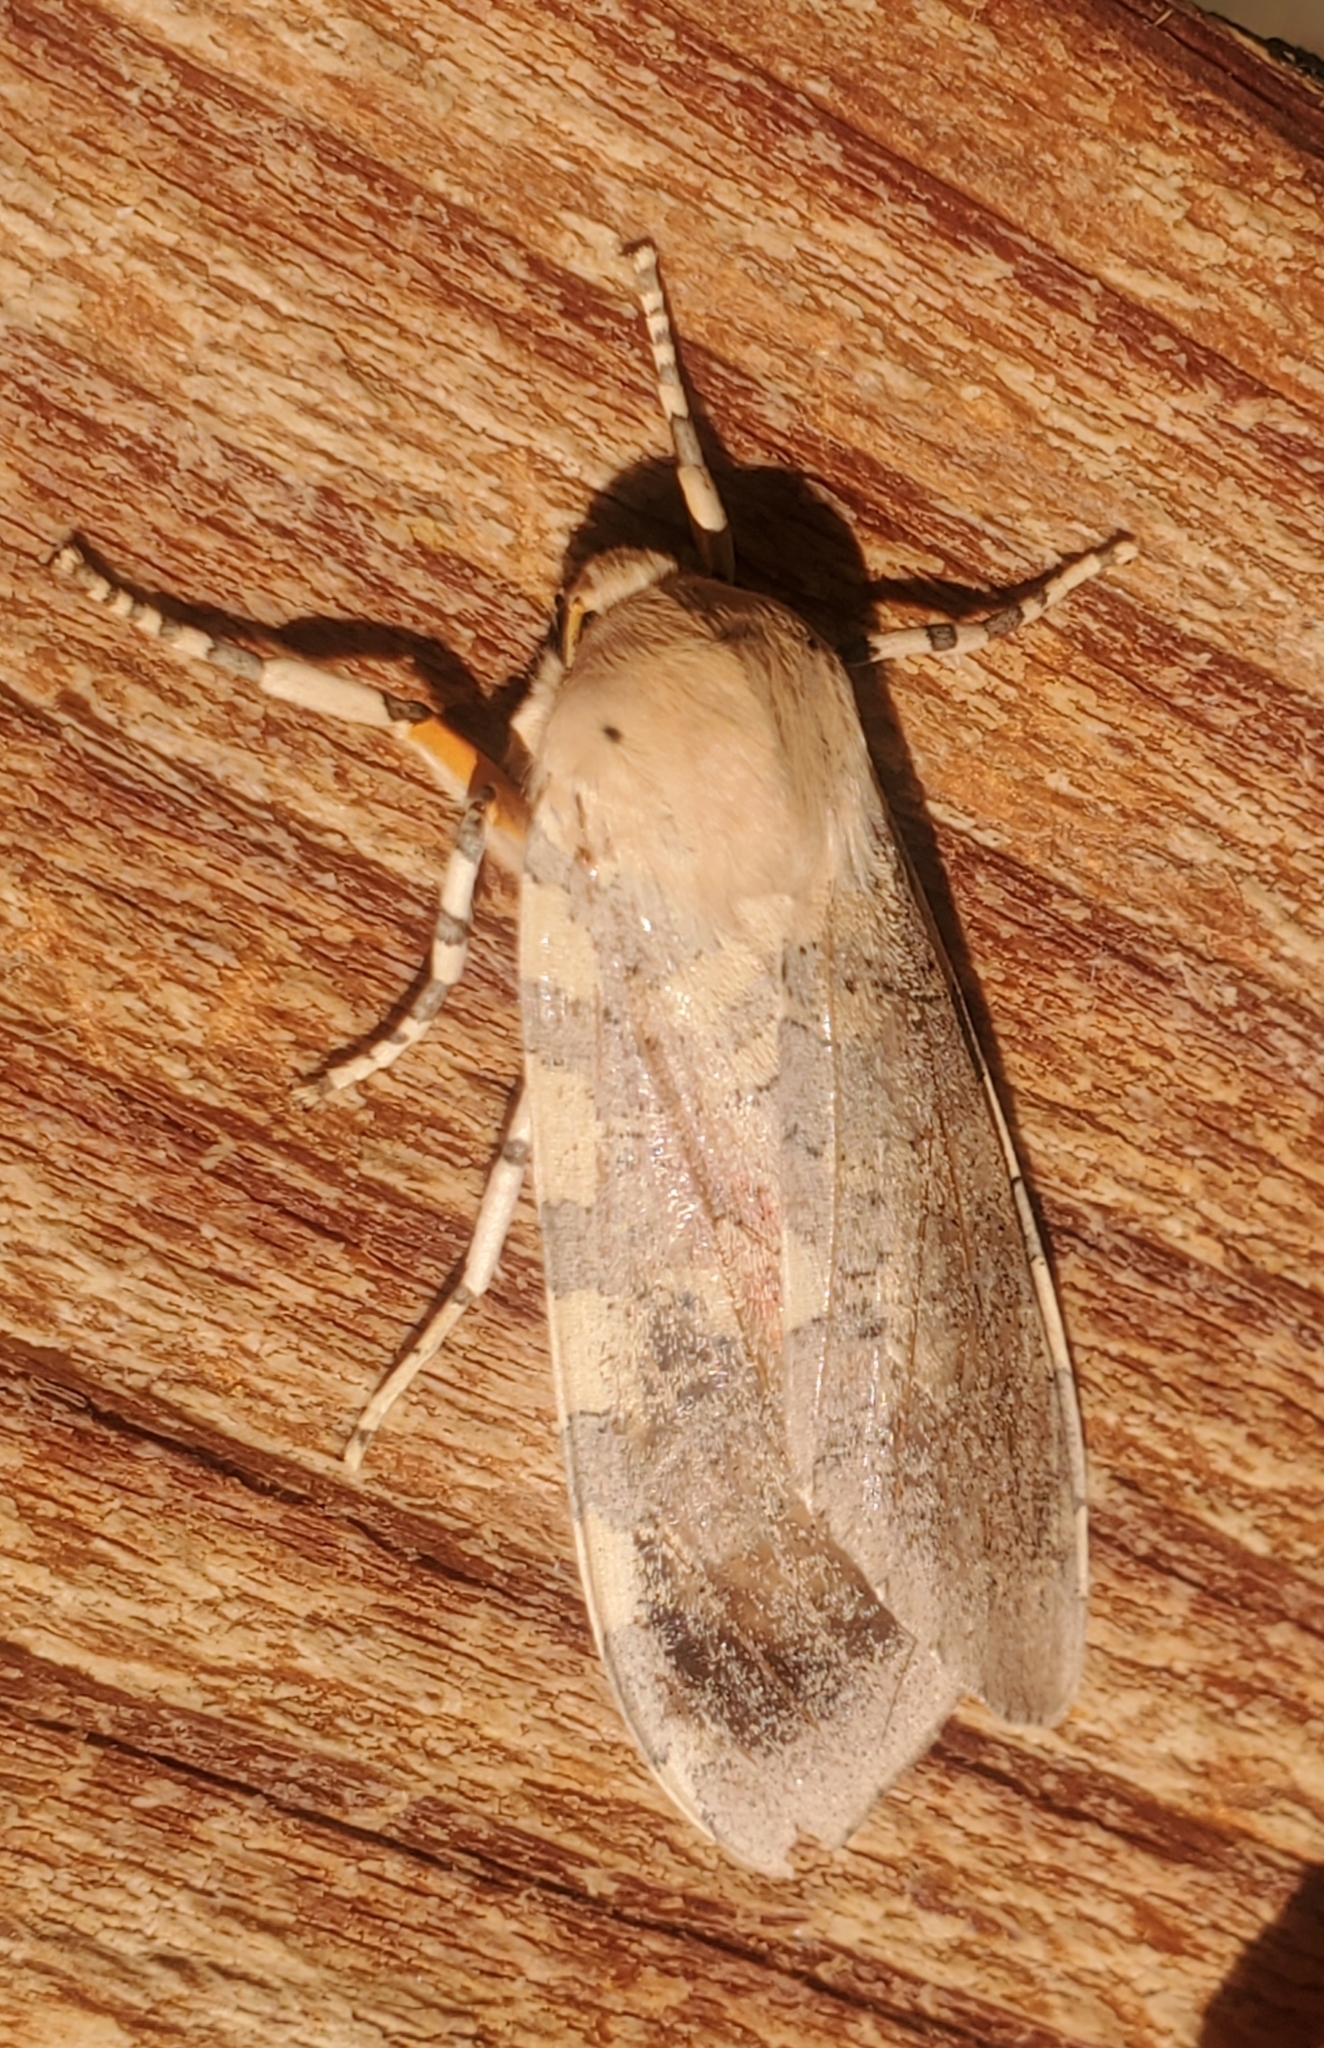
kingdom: Animalia
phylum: Arthropoda
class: Insecta
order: Lepidoptera
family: Erebidae
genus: Hemihyalea
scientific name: Hemihyalea edwardsii
